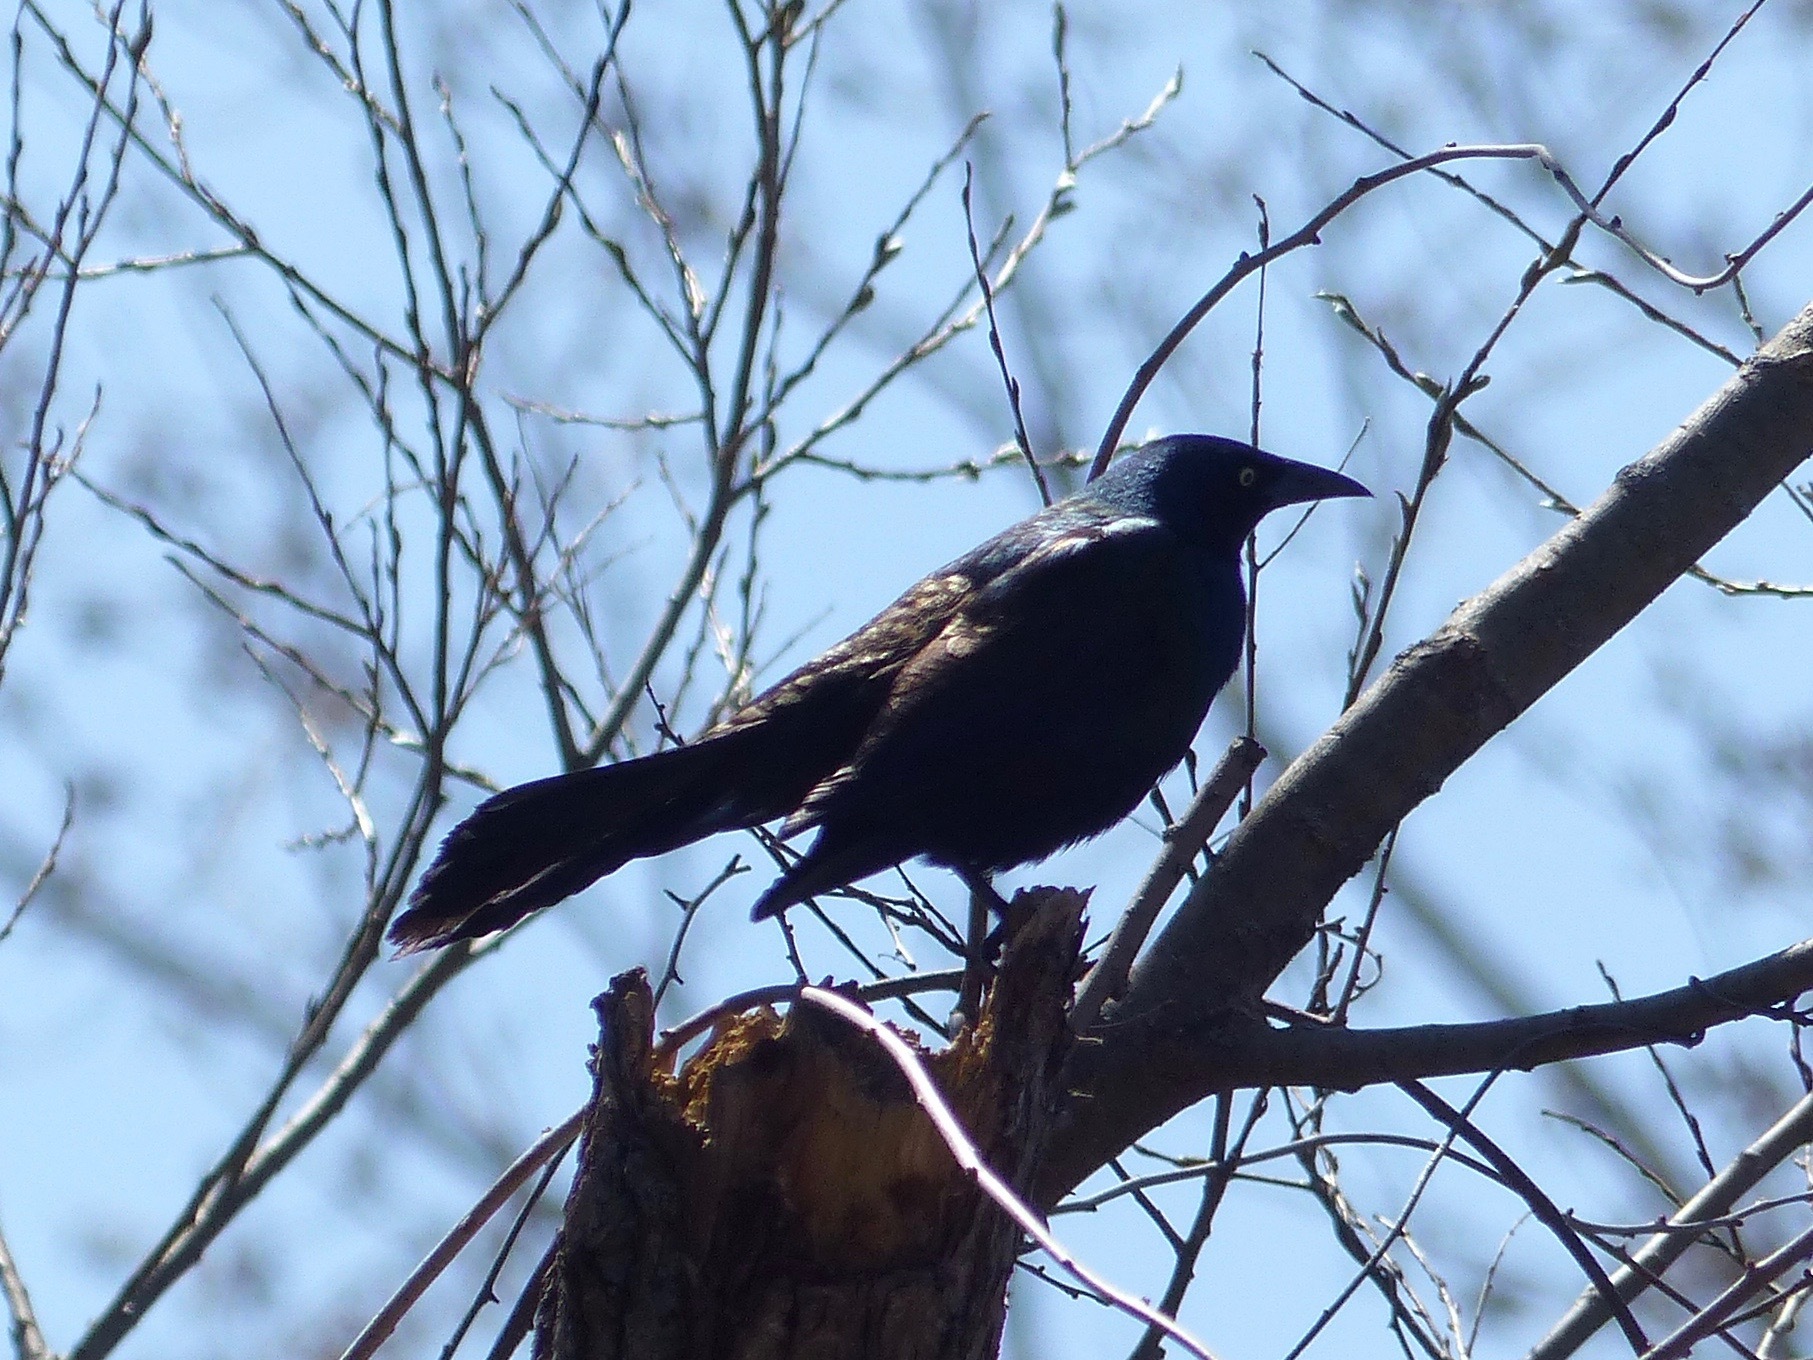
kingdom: Animalia
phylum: Chordata
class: Aves
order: Passeriformes
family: Icteridae
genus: Quiscalus
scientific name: Quiscalus quiscula
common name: Common grackle
